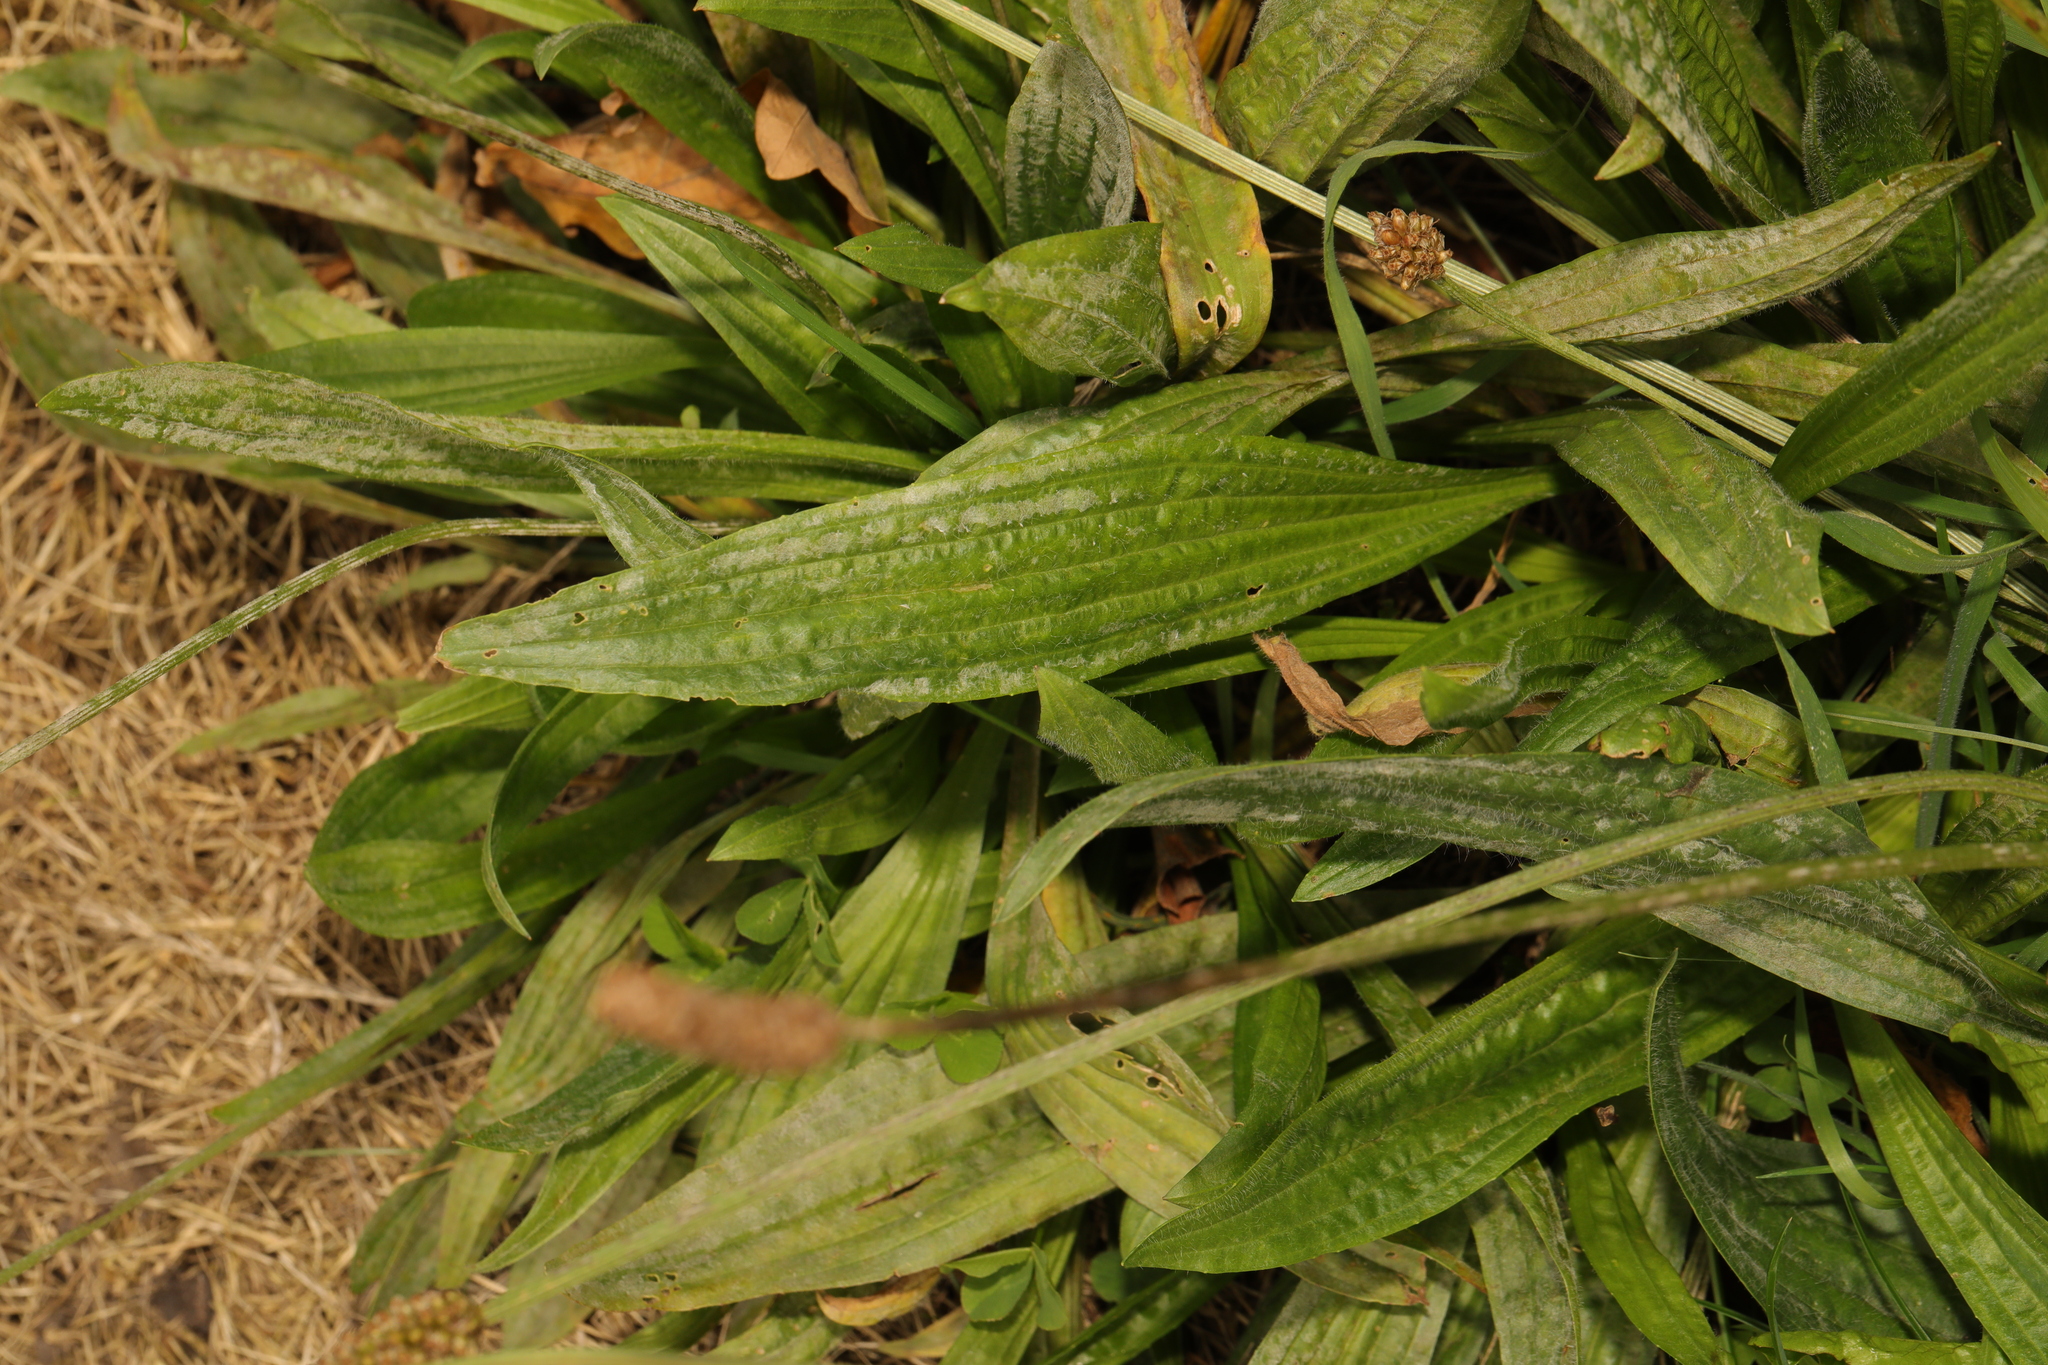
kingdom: Plantae
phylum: Tracheophyta
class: Magnoliopsida
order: Lamiales
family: Plantaginaceae
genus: Plantago
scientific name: Plantago lanceolata
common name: Ribwort plantain
